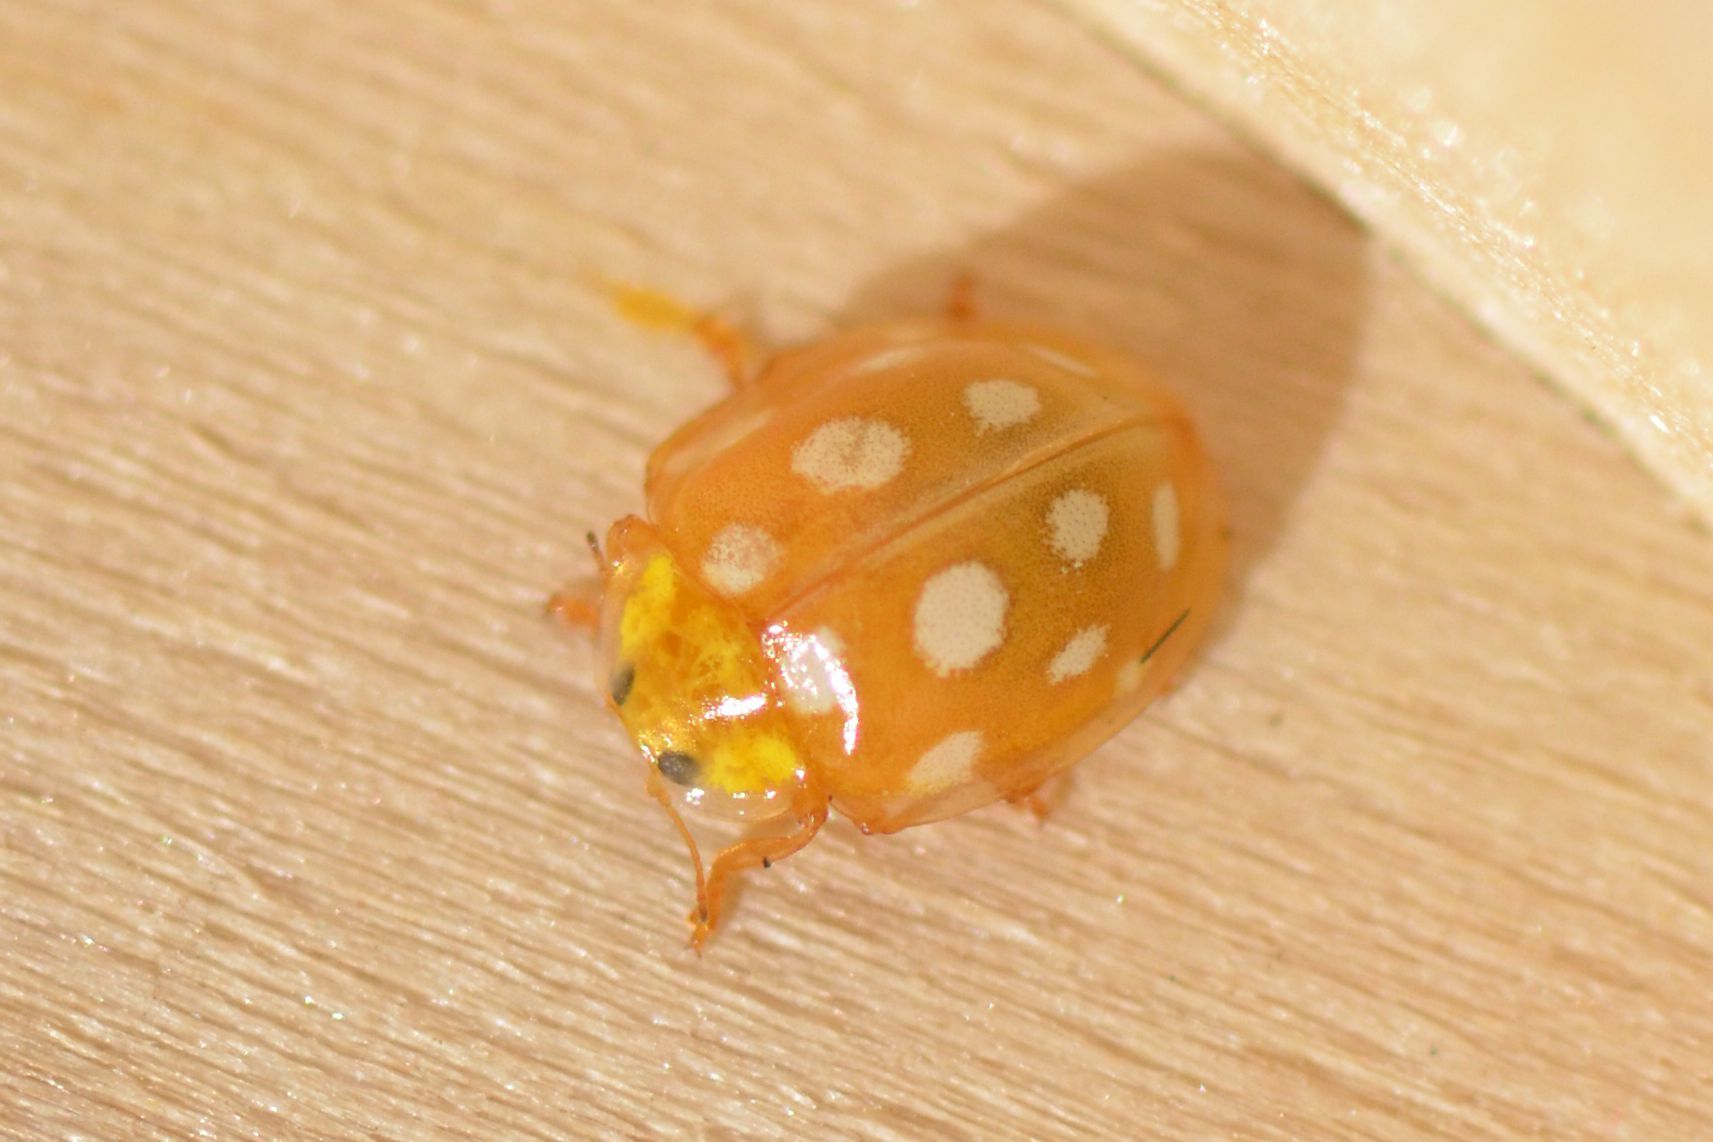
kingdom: Animalia
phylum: Arthropoda
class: Insecta
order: Coleoptera
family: Coccinellidae
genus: Halyzia
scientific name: Halyzia sedecimguttata
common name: Orange ladybird
